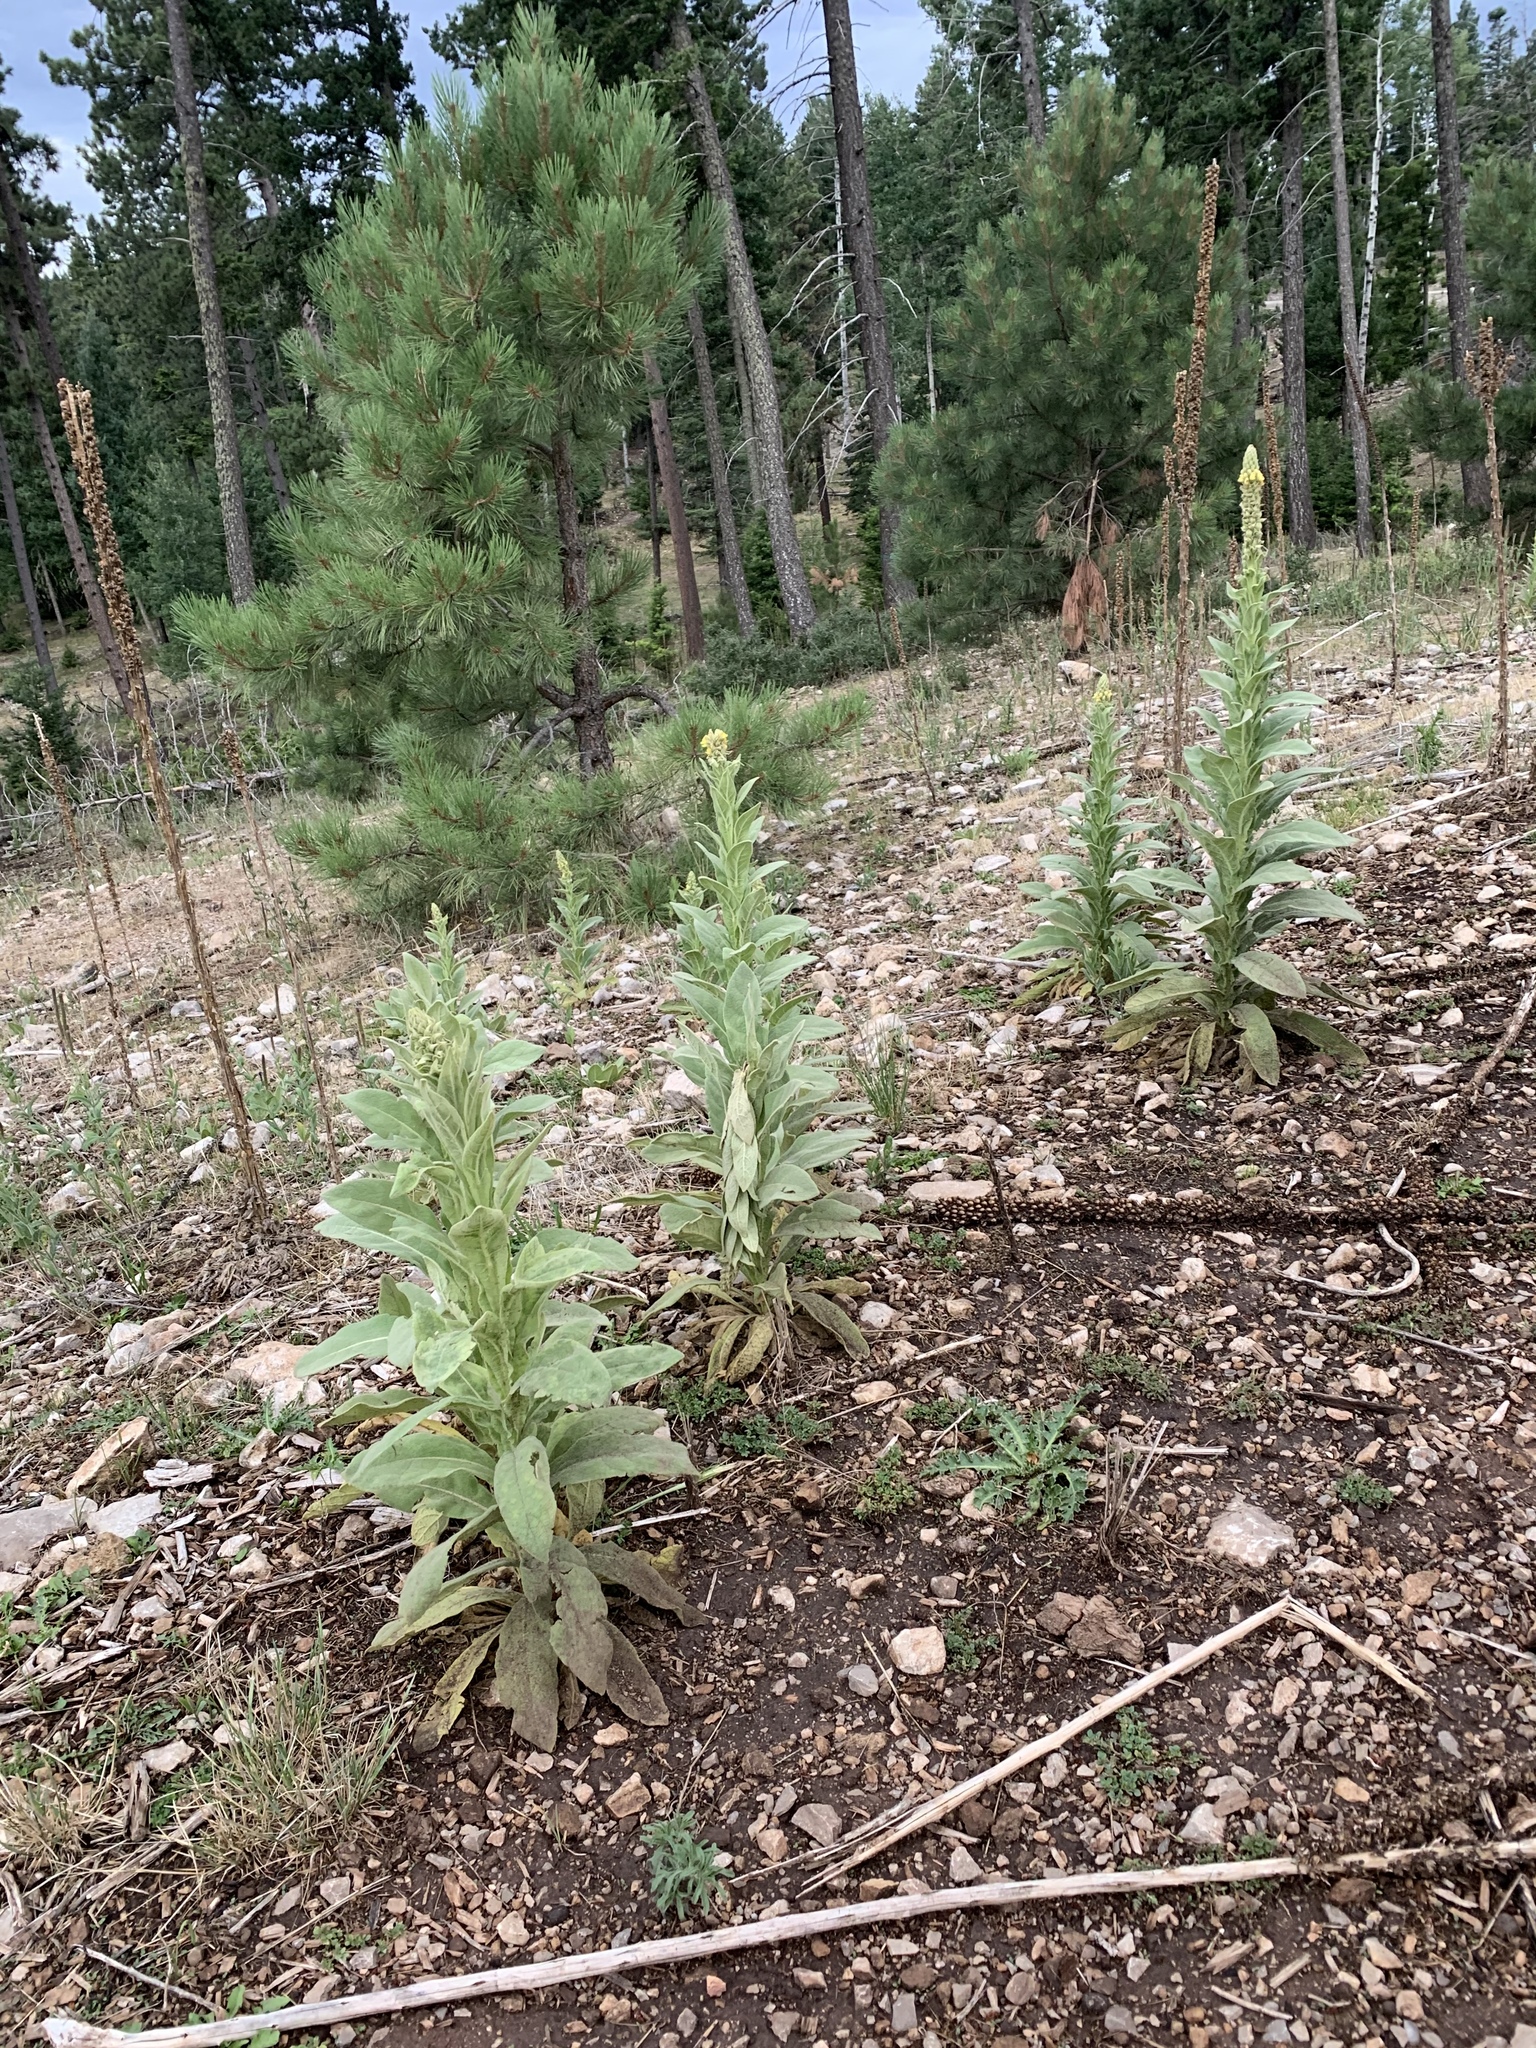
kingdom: Plantae
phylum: Tracheophyta
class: Magnoliopsida
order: Lamiales
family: Scrophulariaceae
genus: Verbascum
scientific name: Verbascum thapsus
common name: Common mullein
